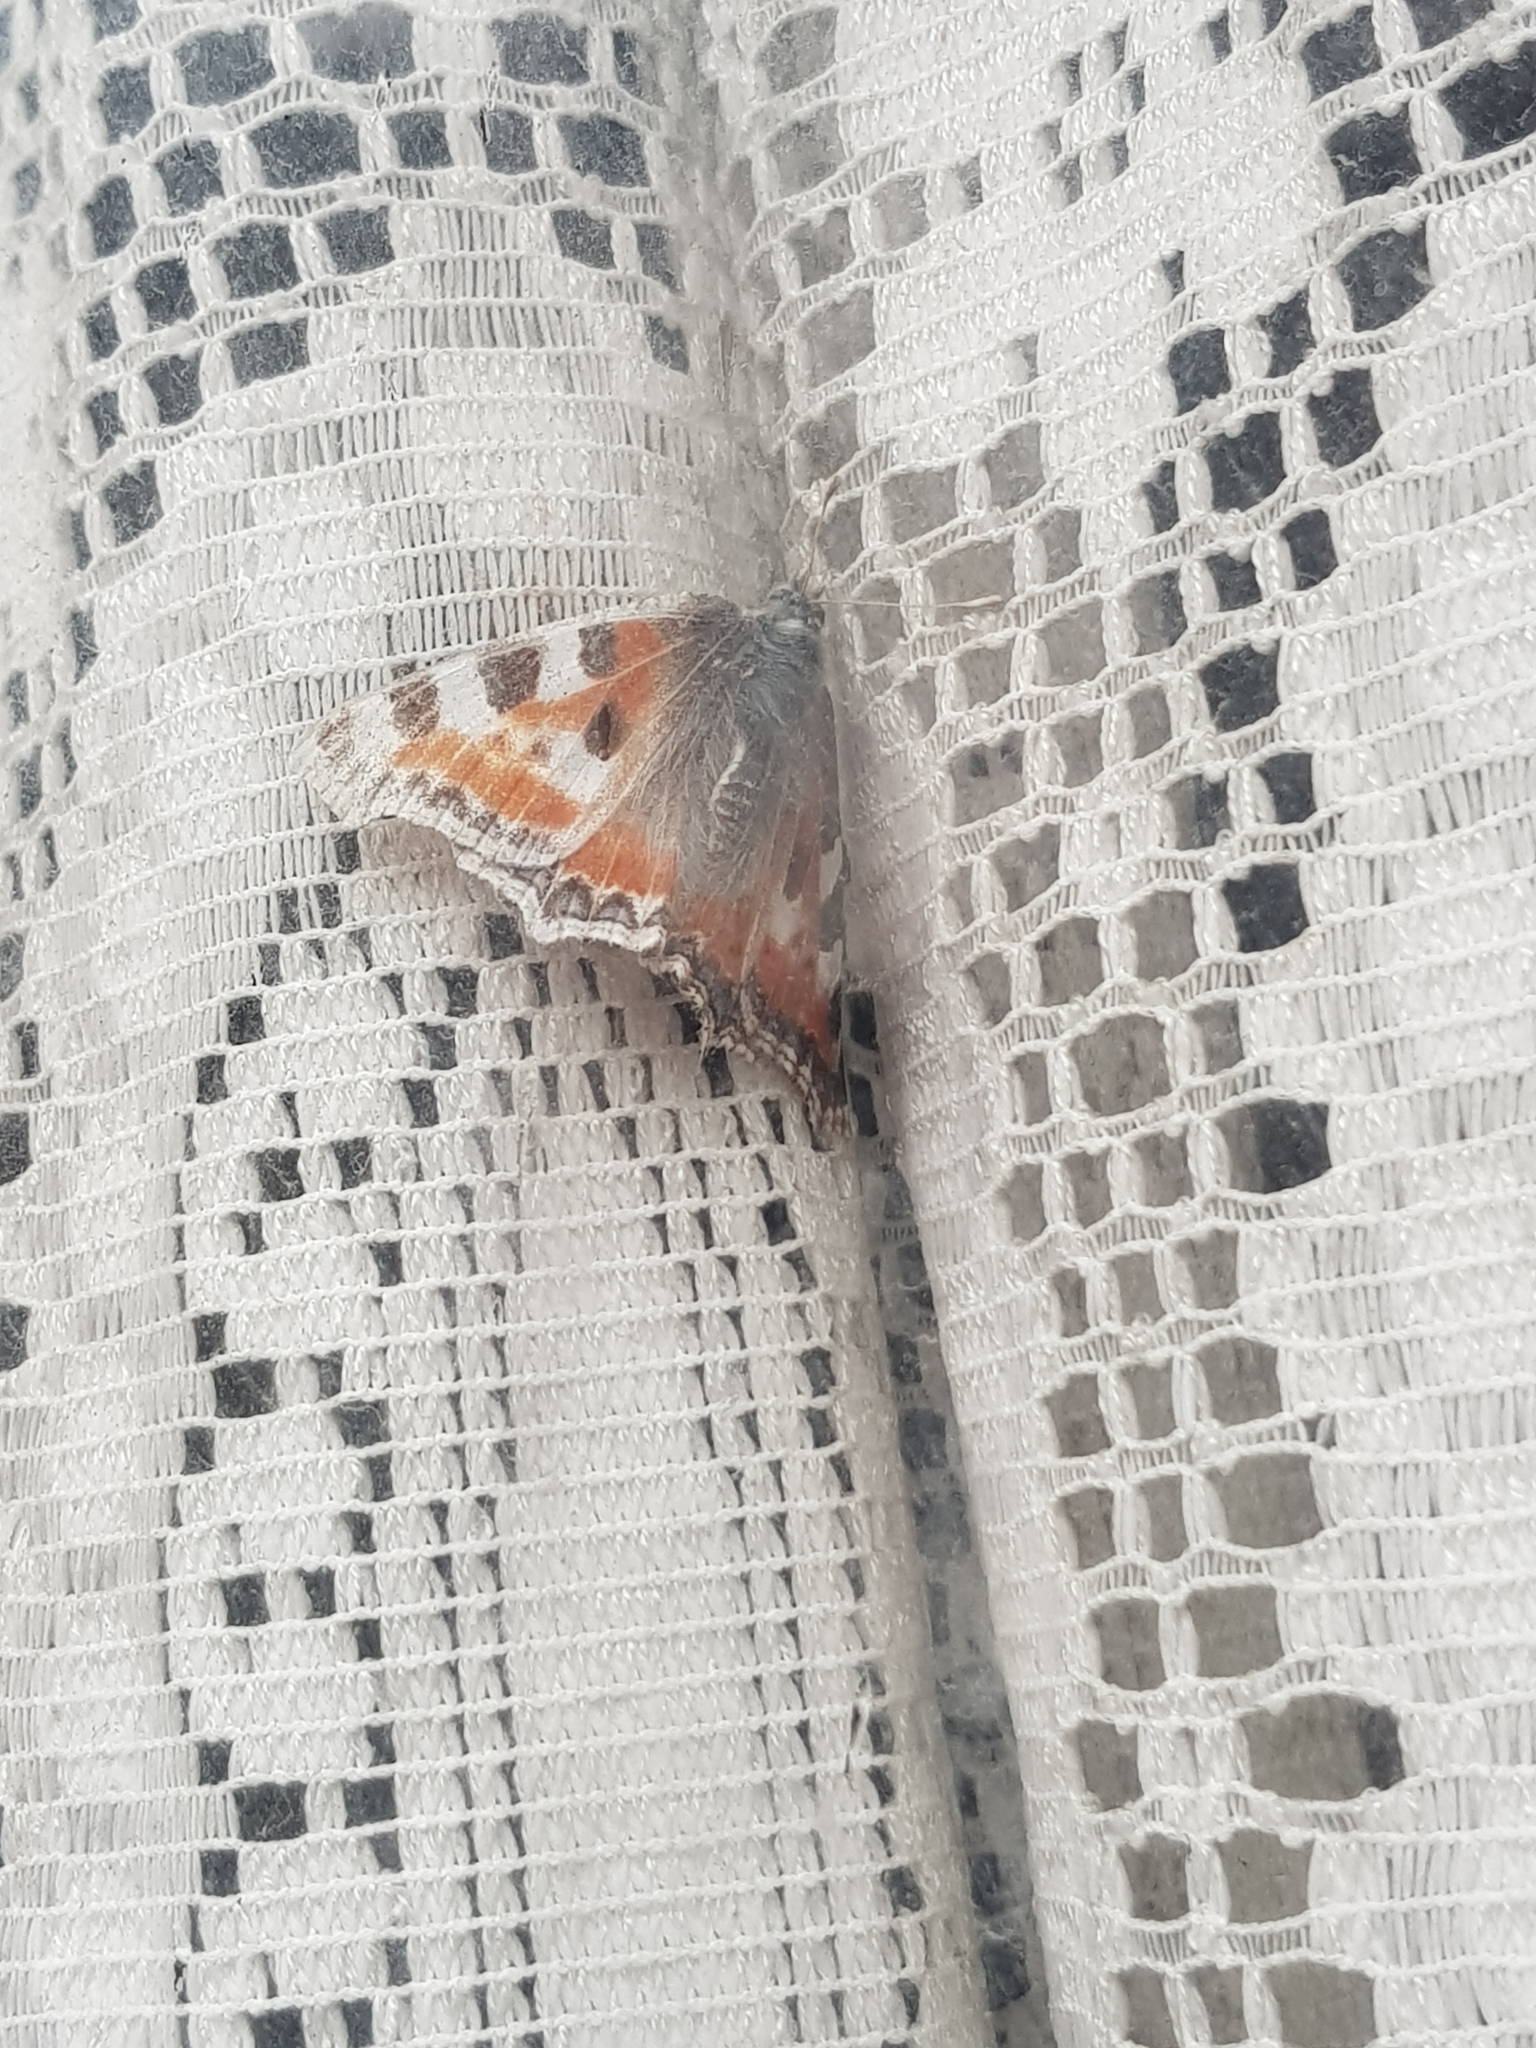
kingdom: Animalia
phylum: Arthropoda
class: Insecta
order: Lepidoptera
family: Nymphalidae
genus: Aglais
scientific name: Aglais urticae
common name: Small tortoiseshell
